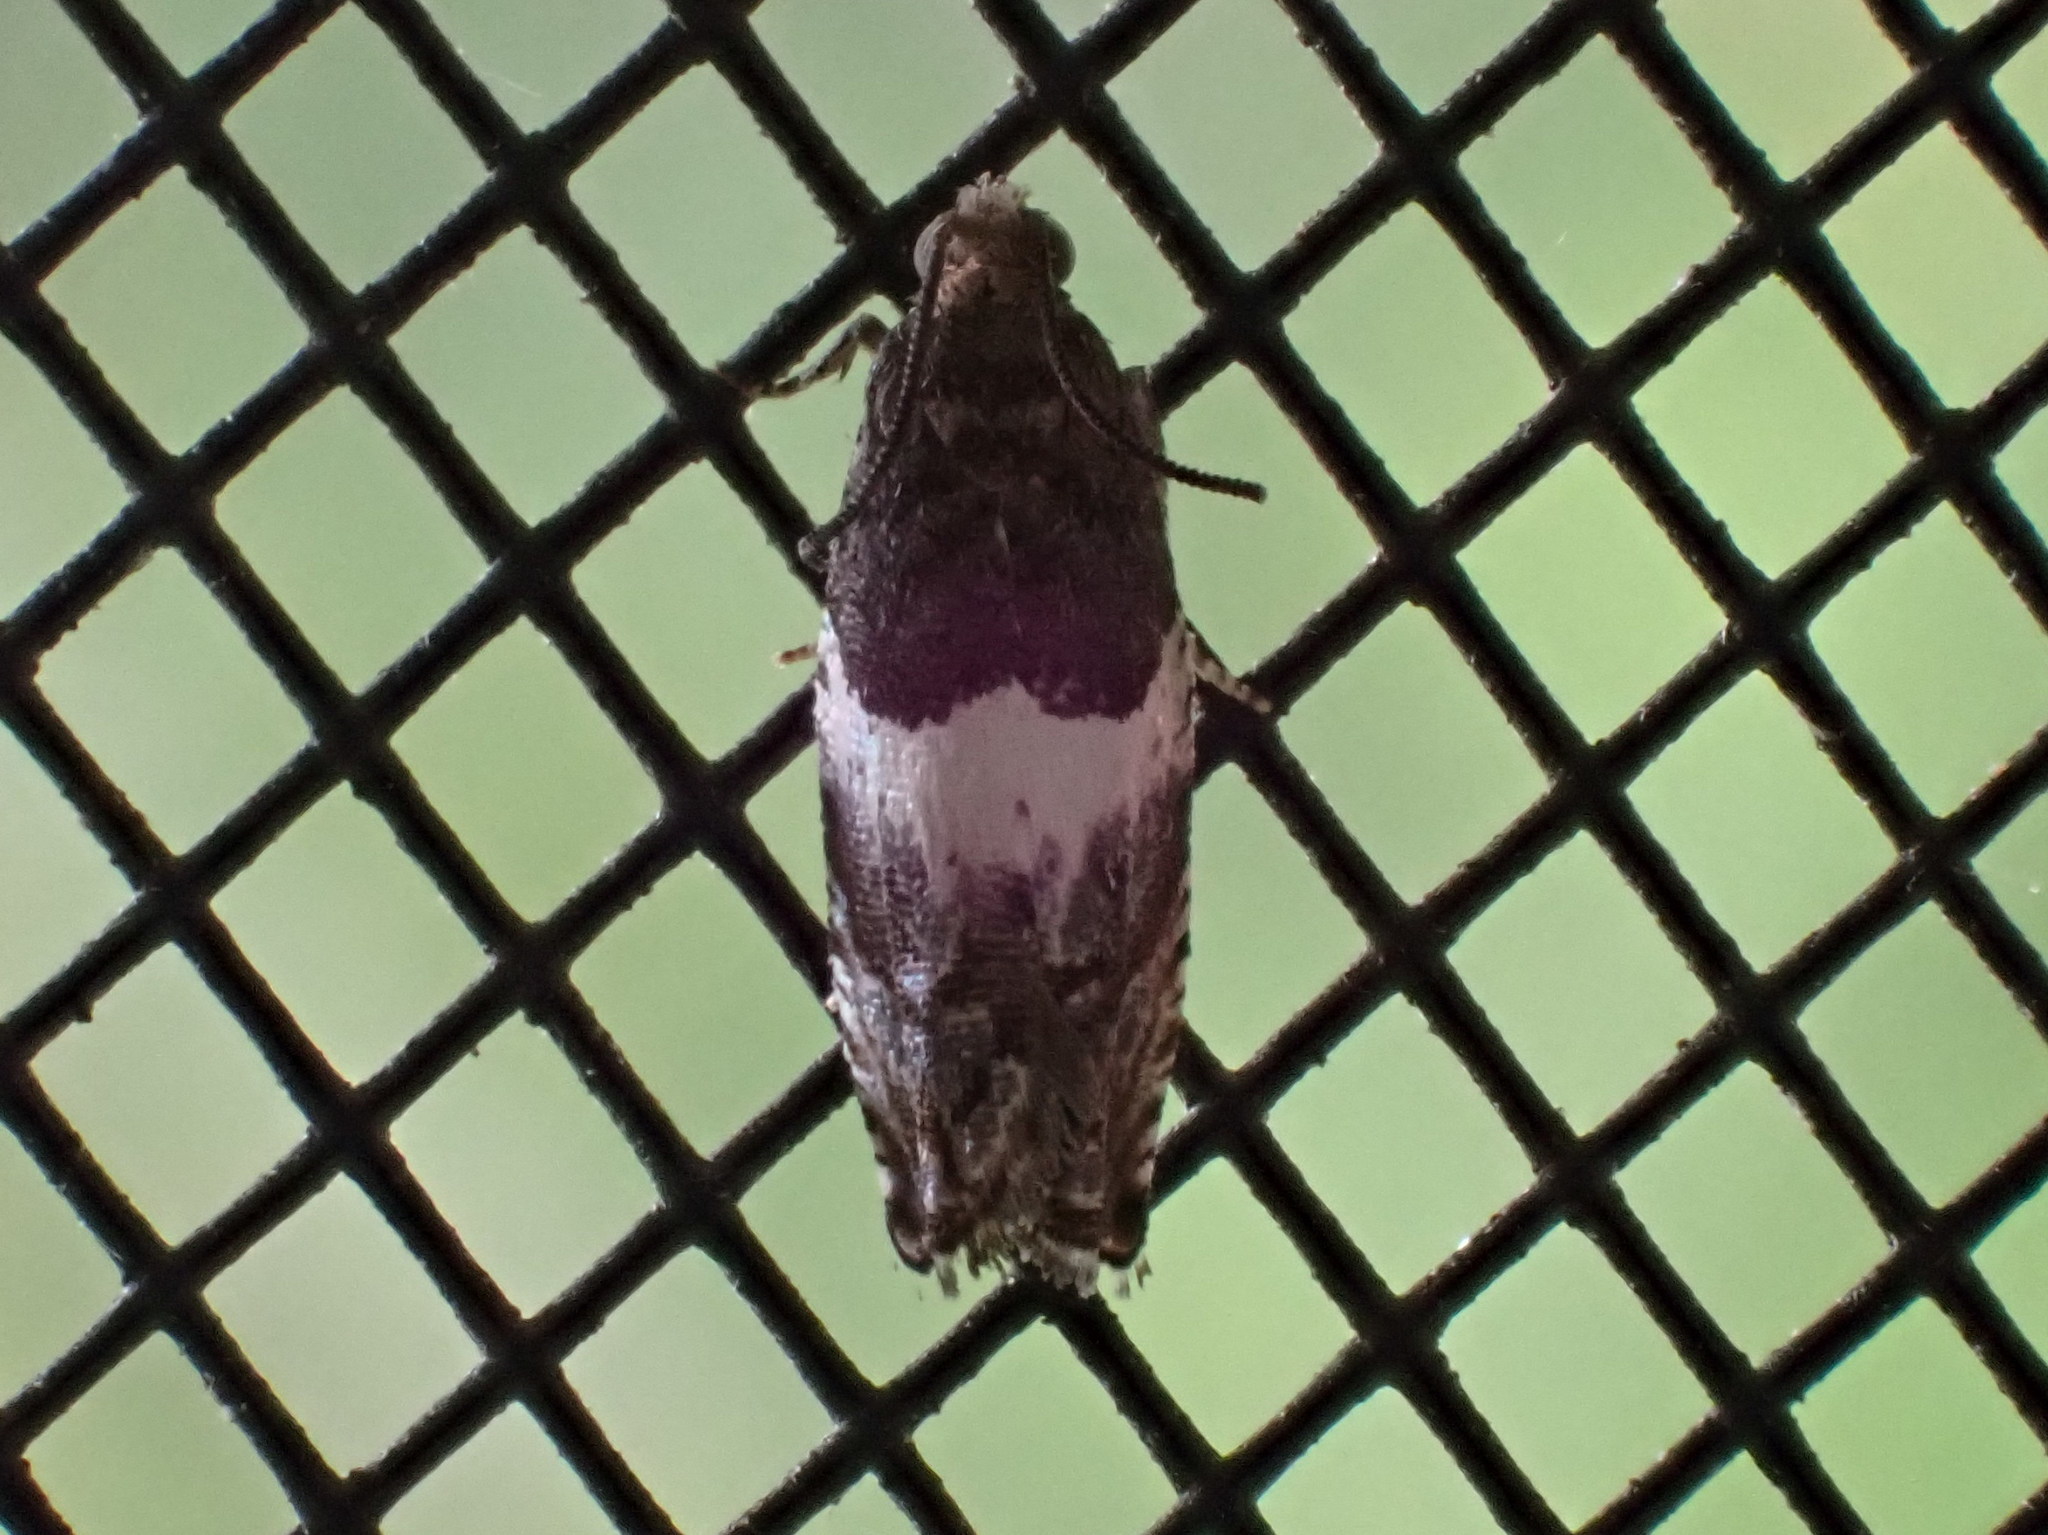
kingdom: Animalia
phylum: Arthropoda
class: Insecta
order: Lepidoptera
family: Tortricidae
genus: Epiblema
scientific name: Epiblema scudderiana
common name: Goldenrod gall moth
